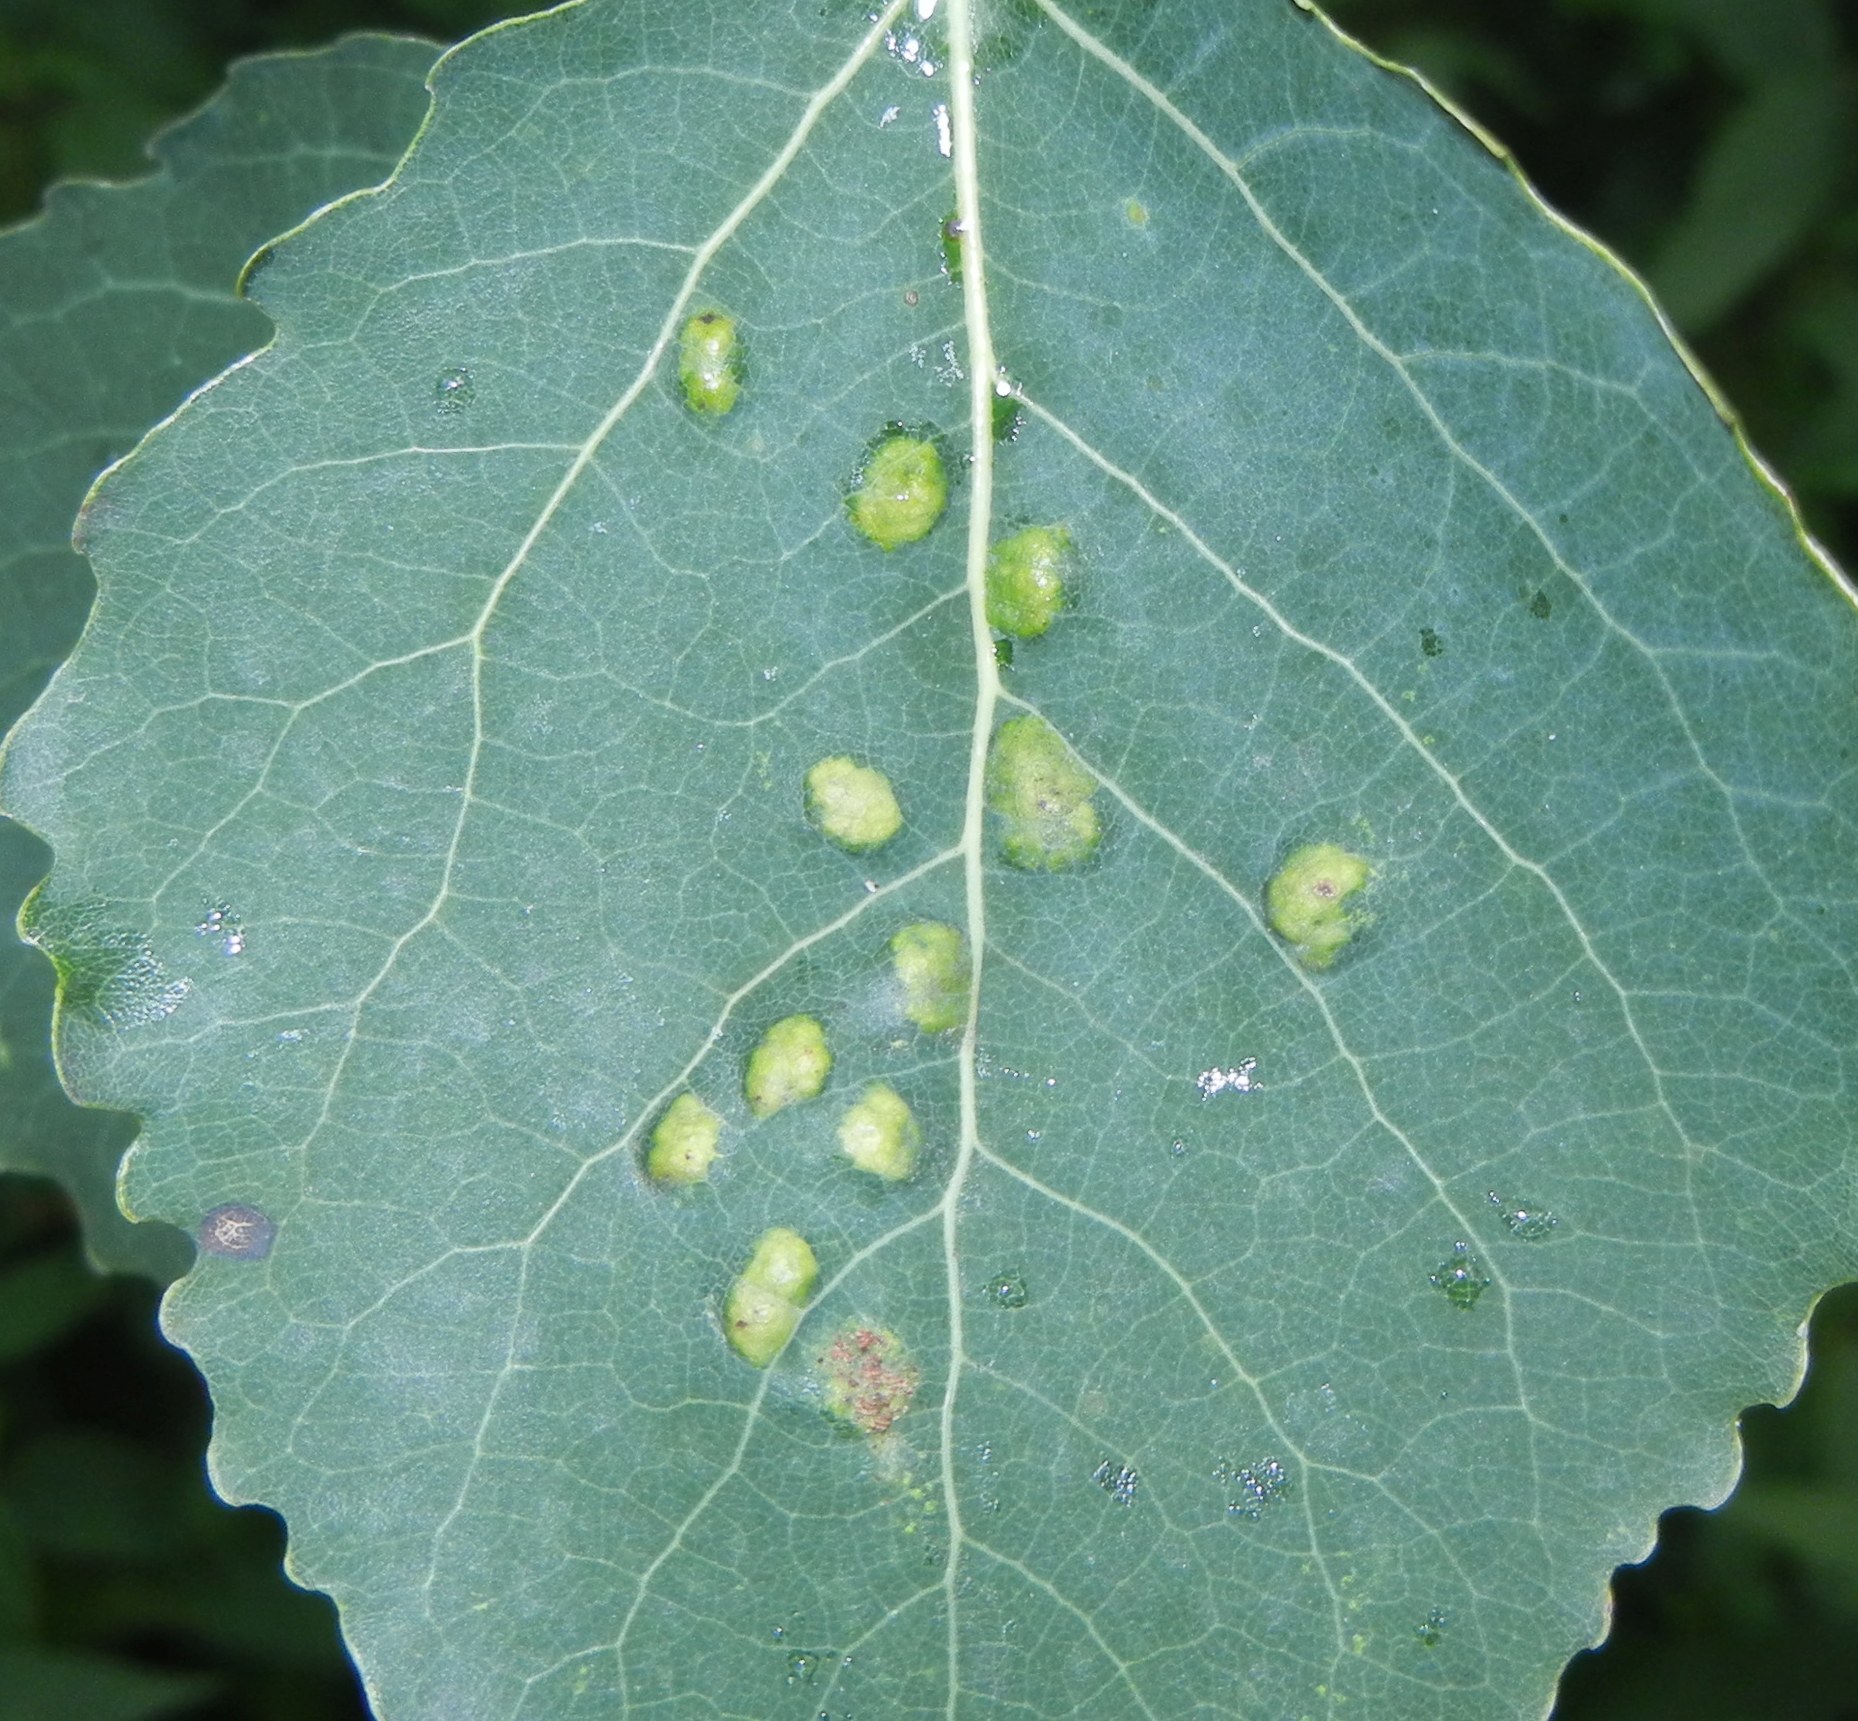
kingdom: Animalia
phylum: Arthropoda
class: Arachnida
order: Trombidiformes
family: Eriophyidae
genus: Phyllocoptes
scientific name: Phyllocoptes populi
